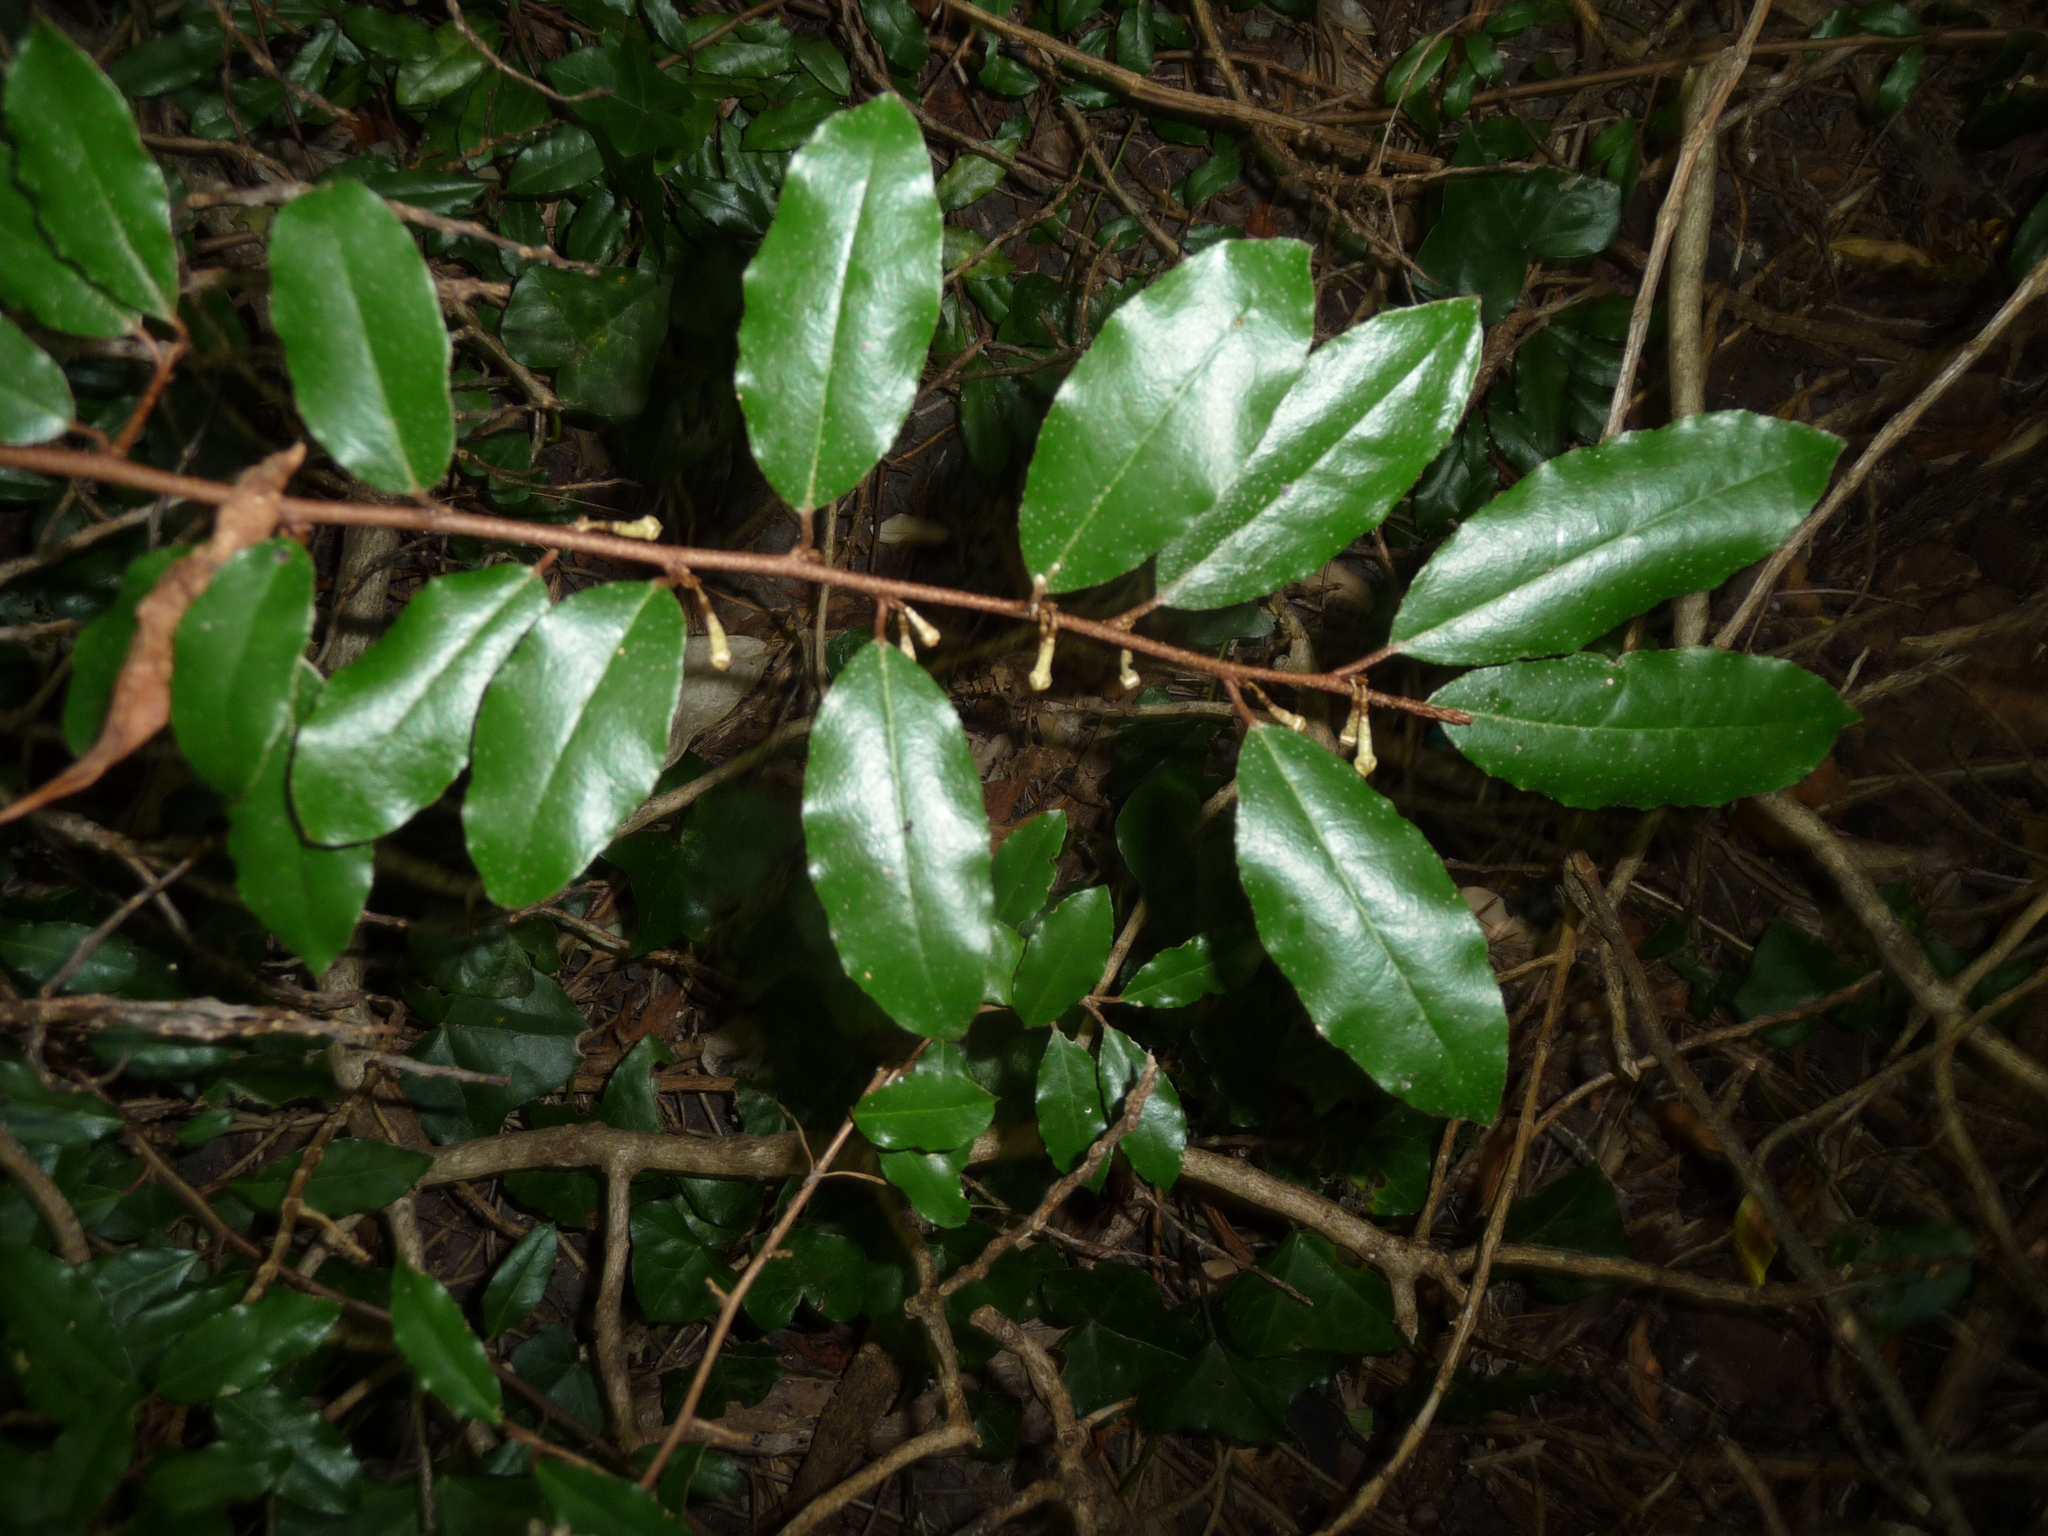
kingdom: Plantae
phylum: Tracheophyta
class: Magnoliopsida
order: Rosales
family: Elaeagnaceae
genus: Elaeagnus
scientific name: Elaeagnus reflexa
